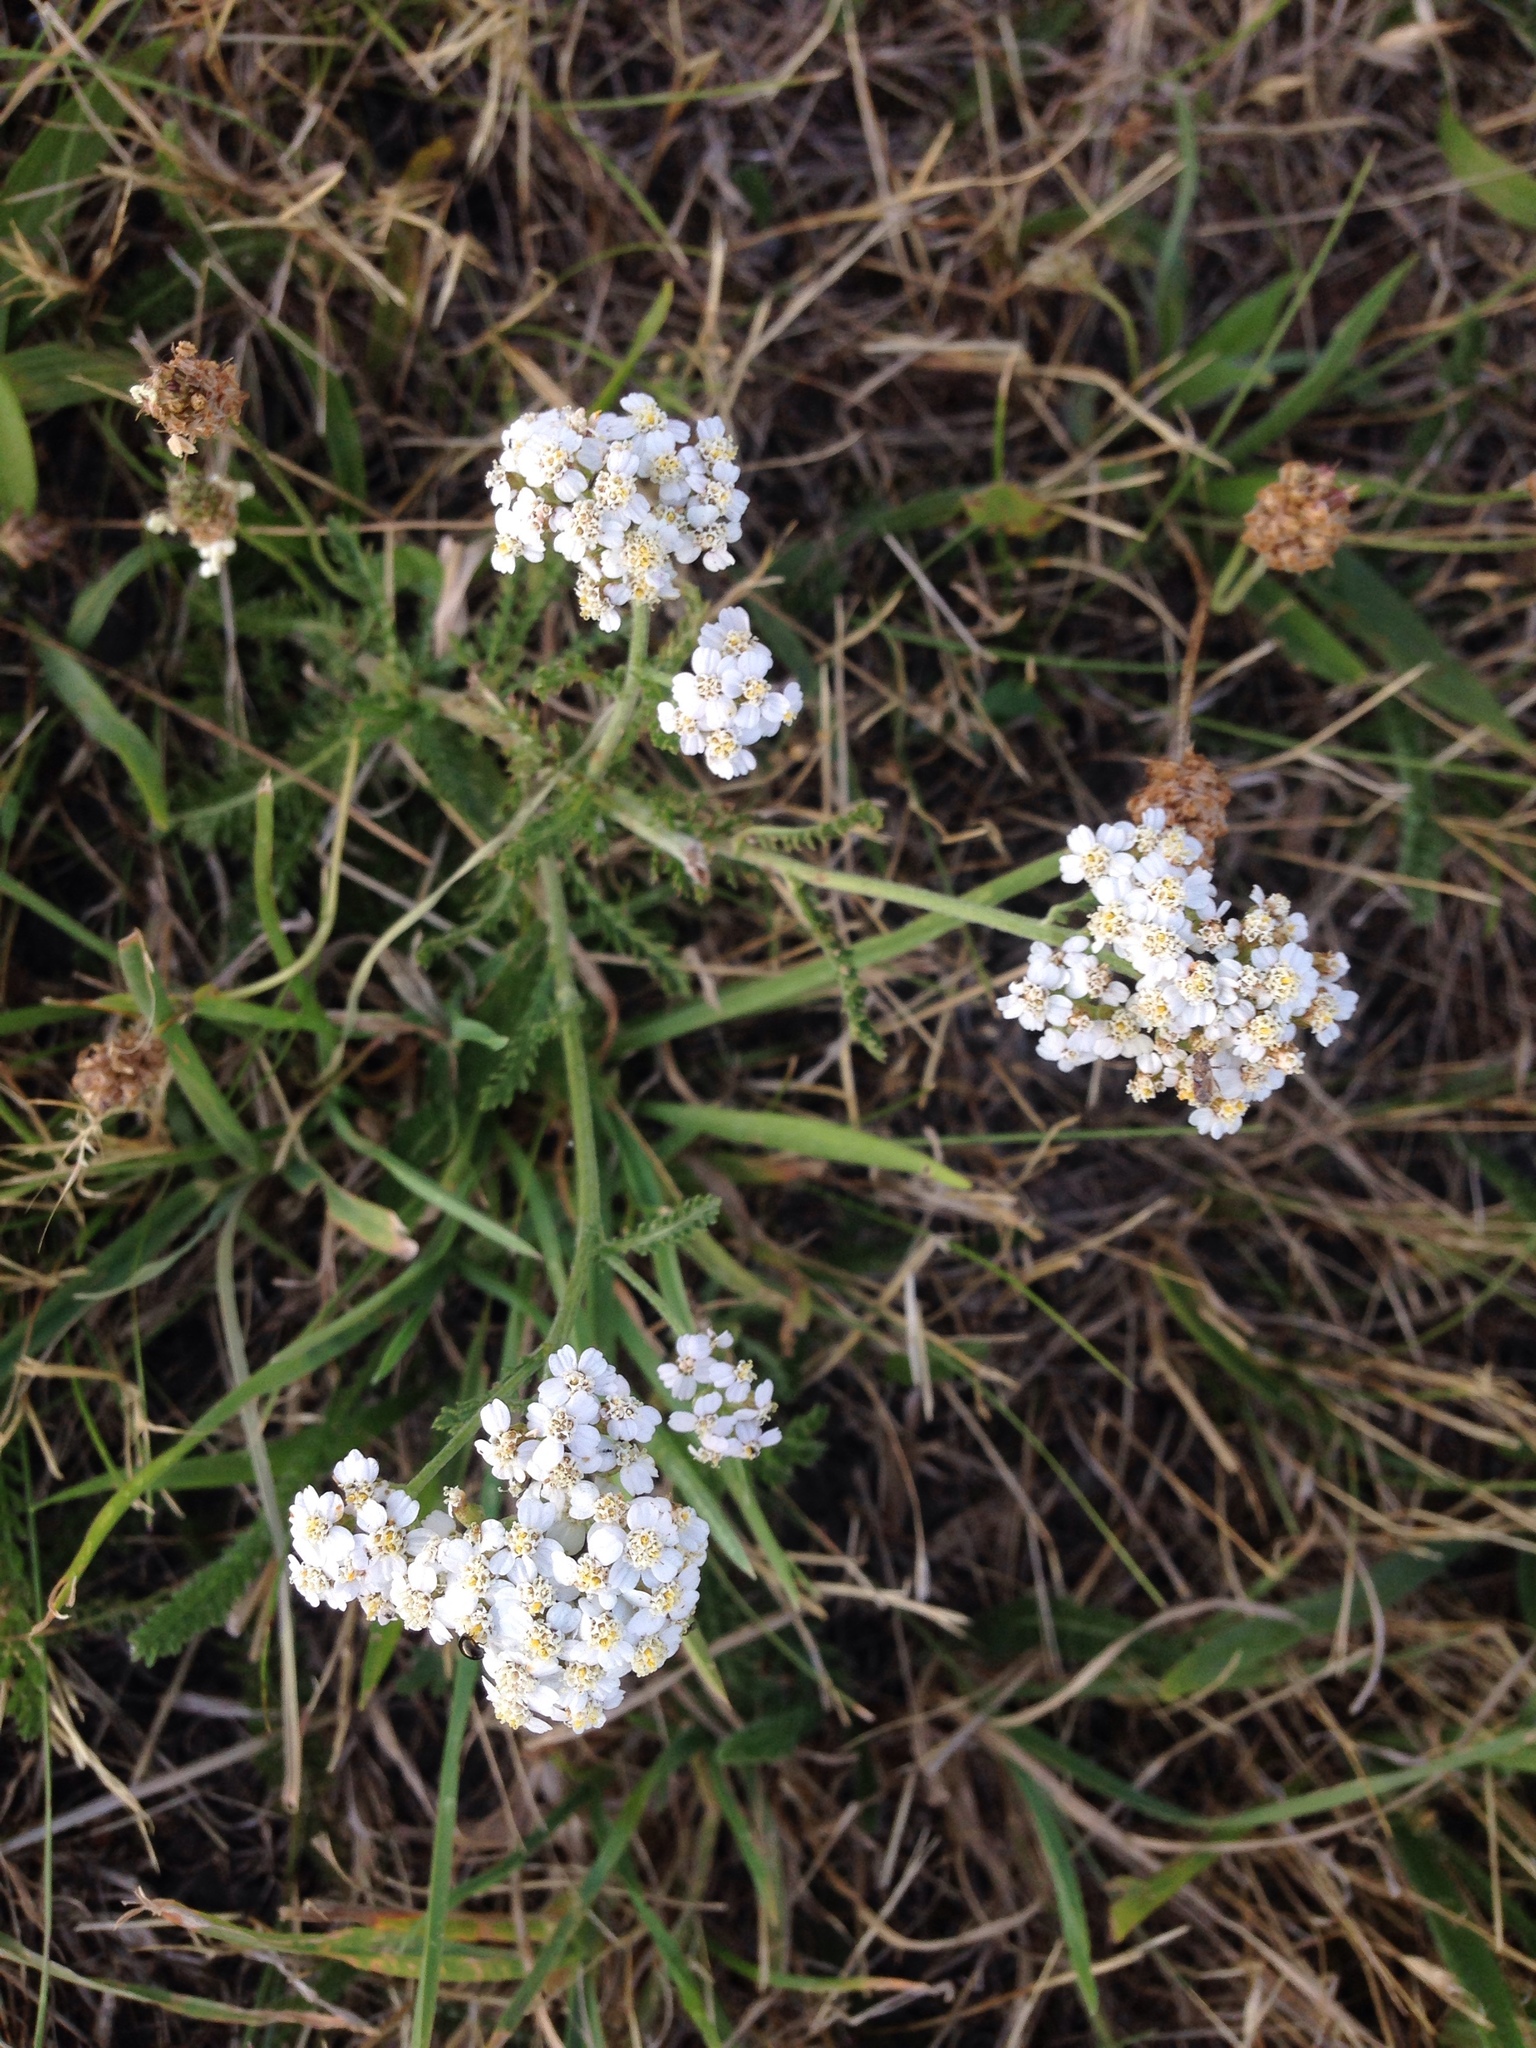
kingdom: Plantae
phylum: Tracheophyta
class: Magnoliopsida
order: Asterales
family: Asteraceae
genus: Achillea
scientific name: Achillea millefolium
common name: Yarrow
